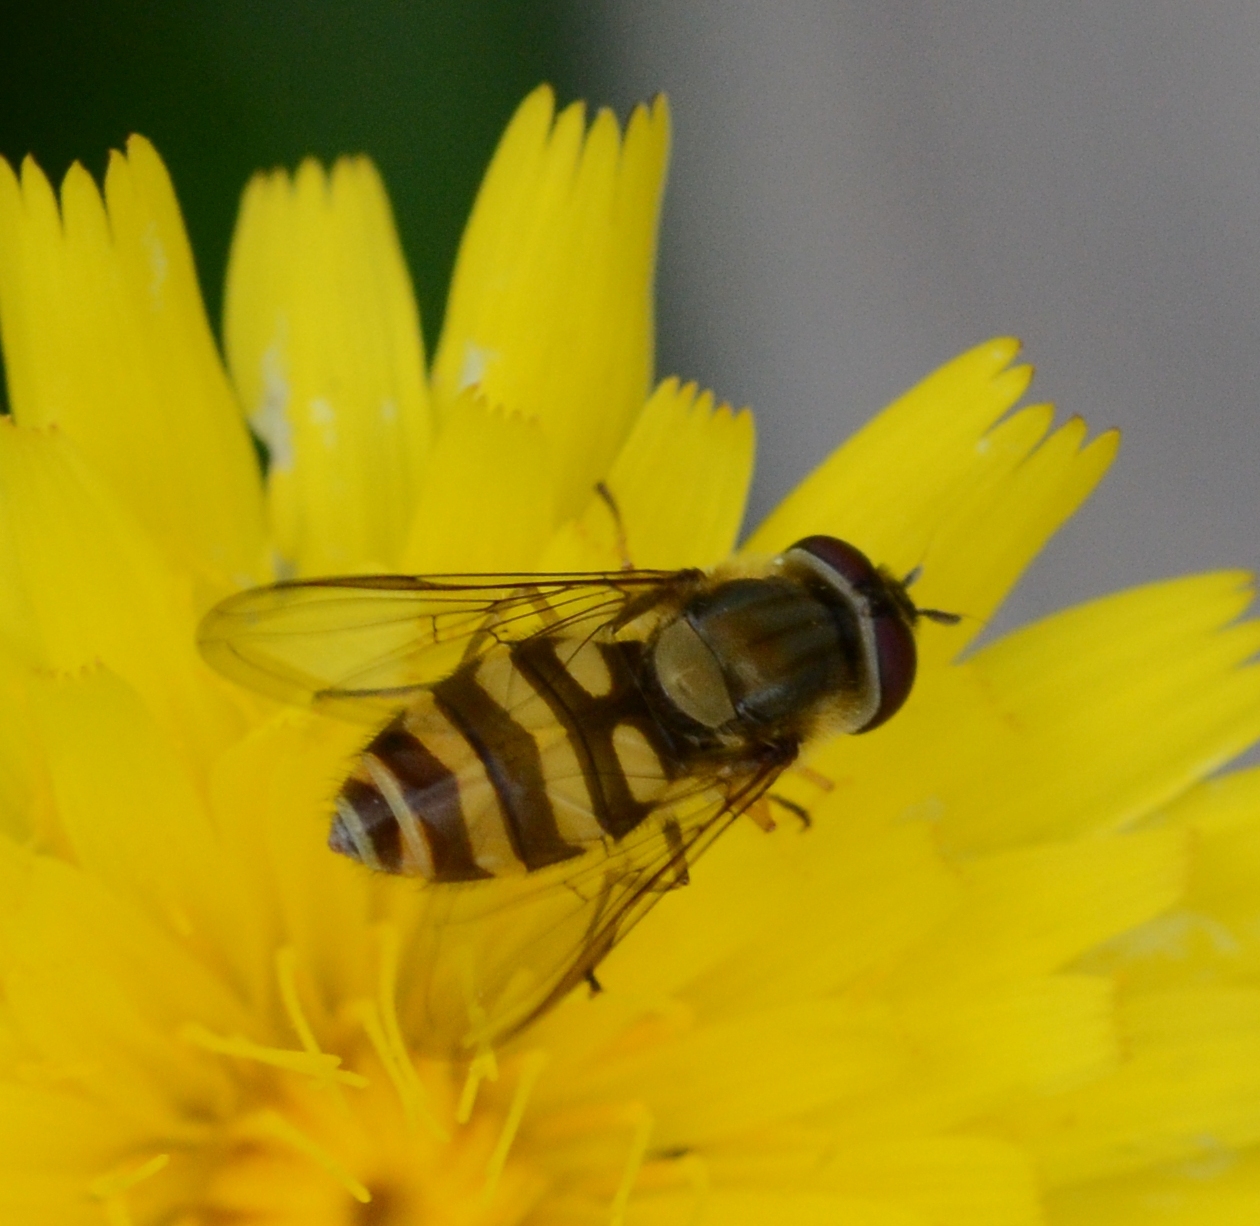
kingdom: Animalia
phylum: Arthropoda
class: Insecta
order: Diptera
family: Syrphidae
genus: Syrphus
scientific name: Syrphus
